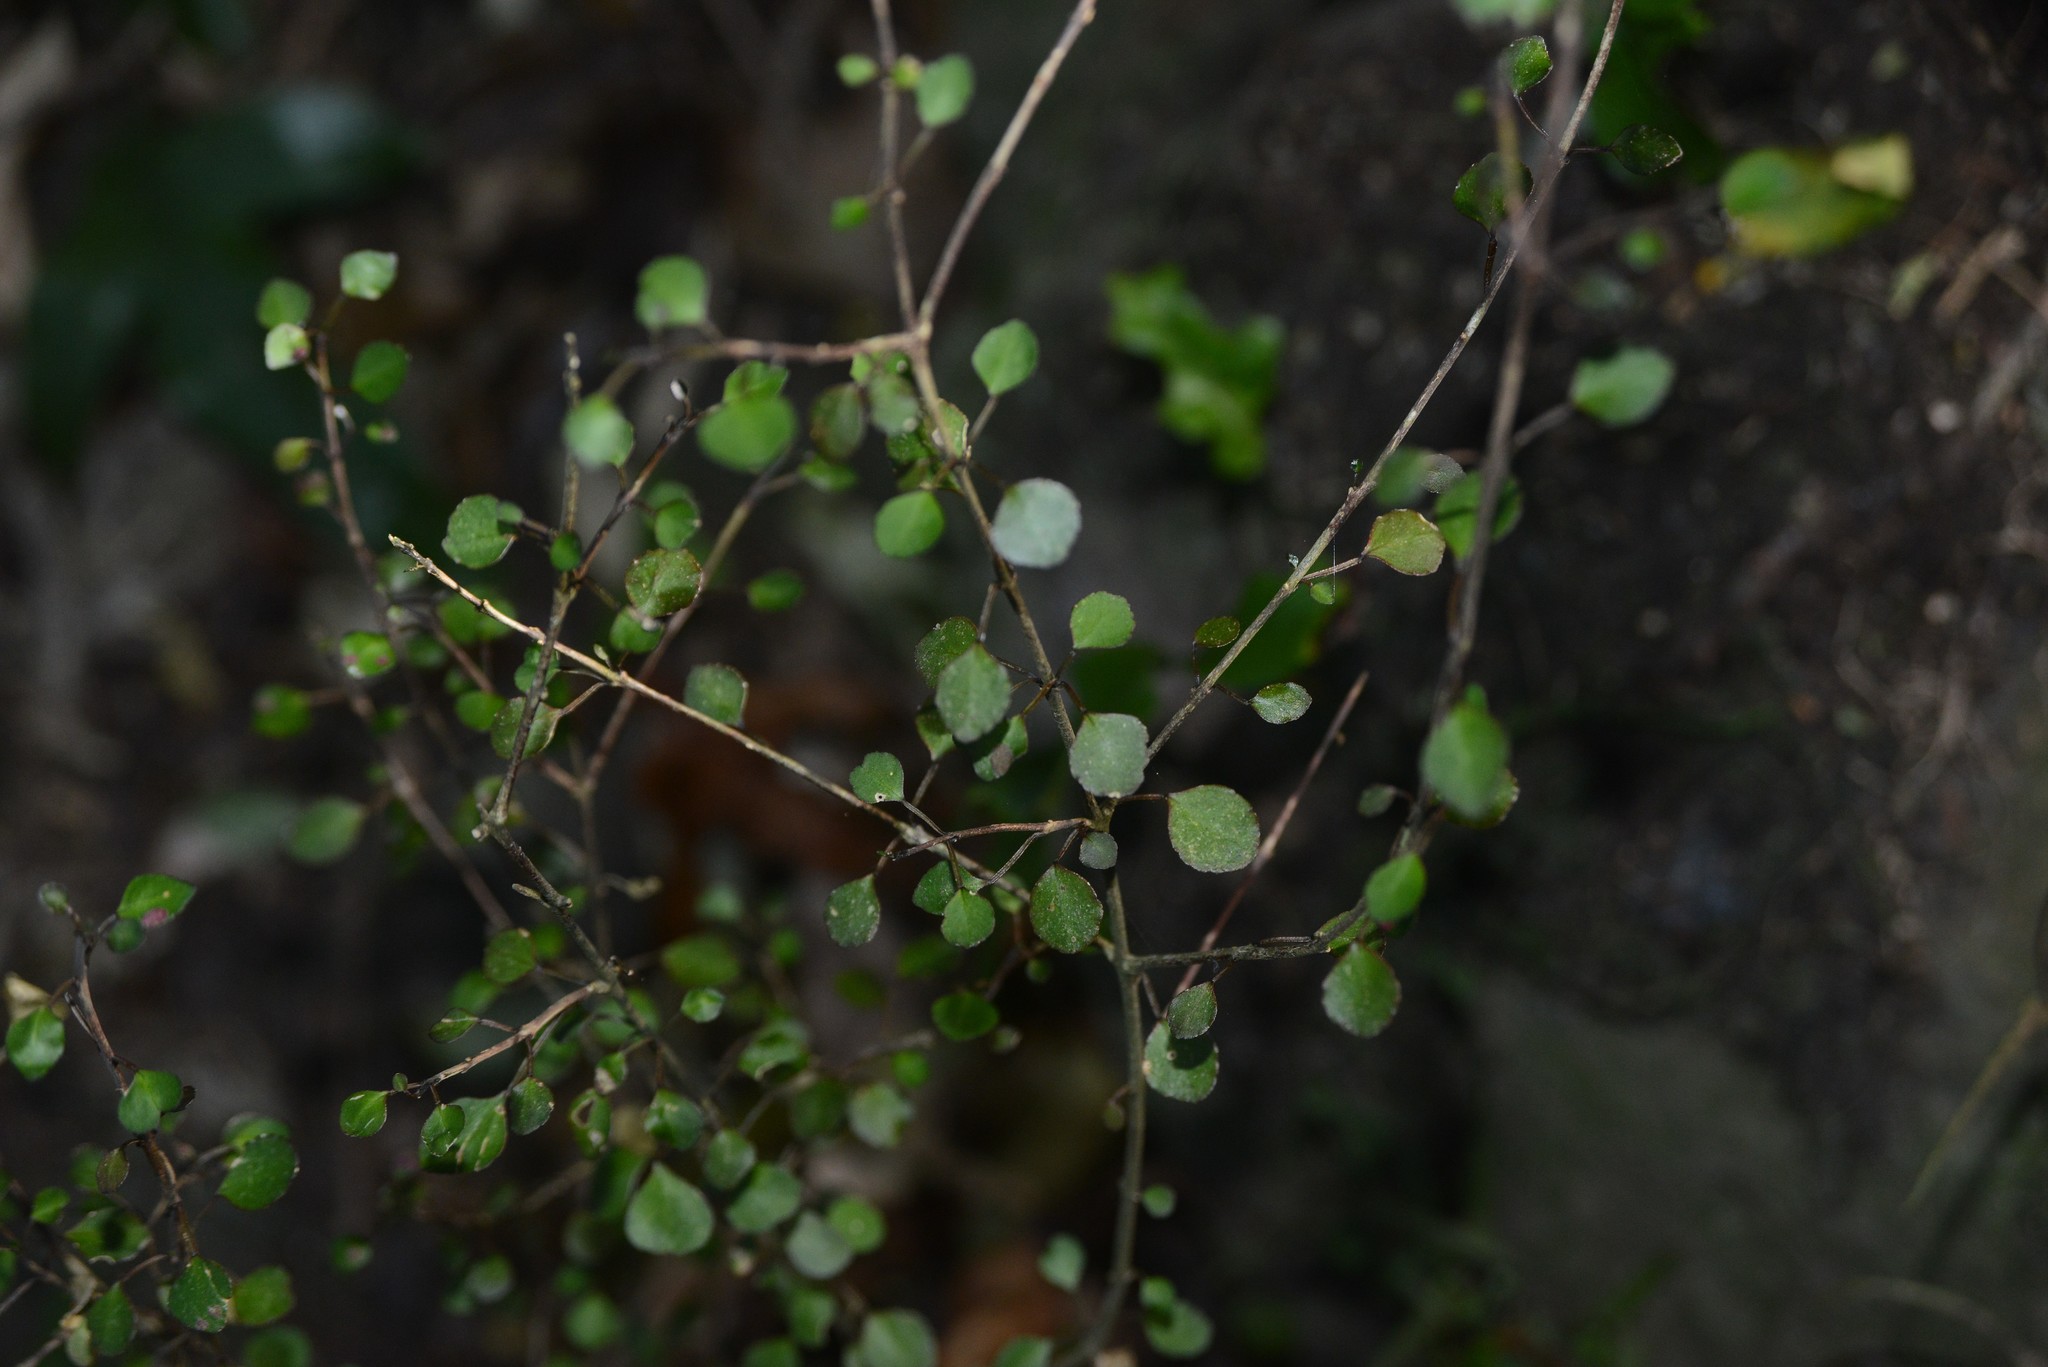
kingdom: Plantae
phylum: Tracheophyta
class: Magnoliopsida
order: Sapindales
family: Rutaceae
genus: Melicope
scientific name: Melicope simplex
